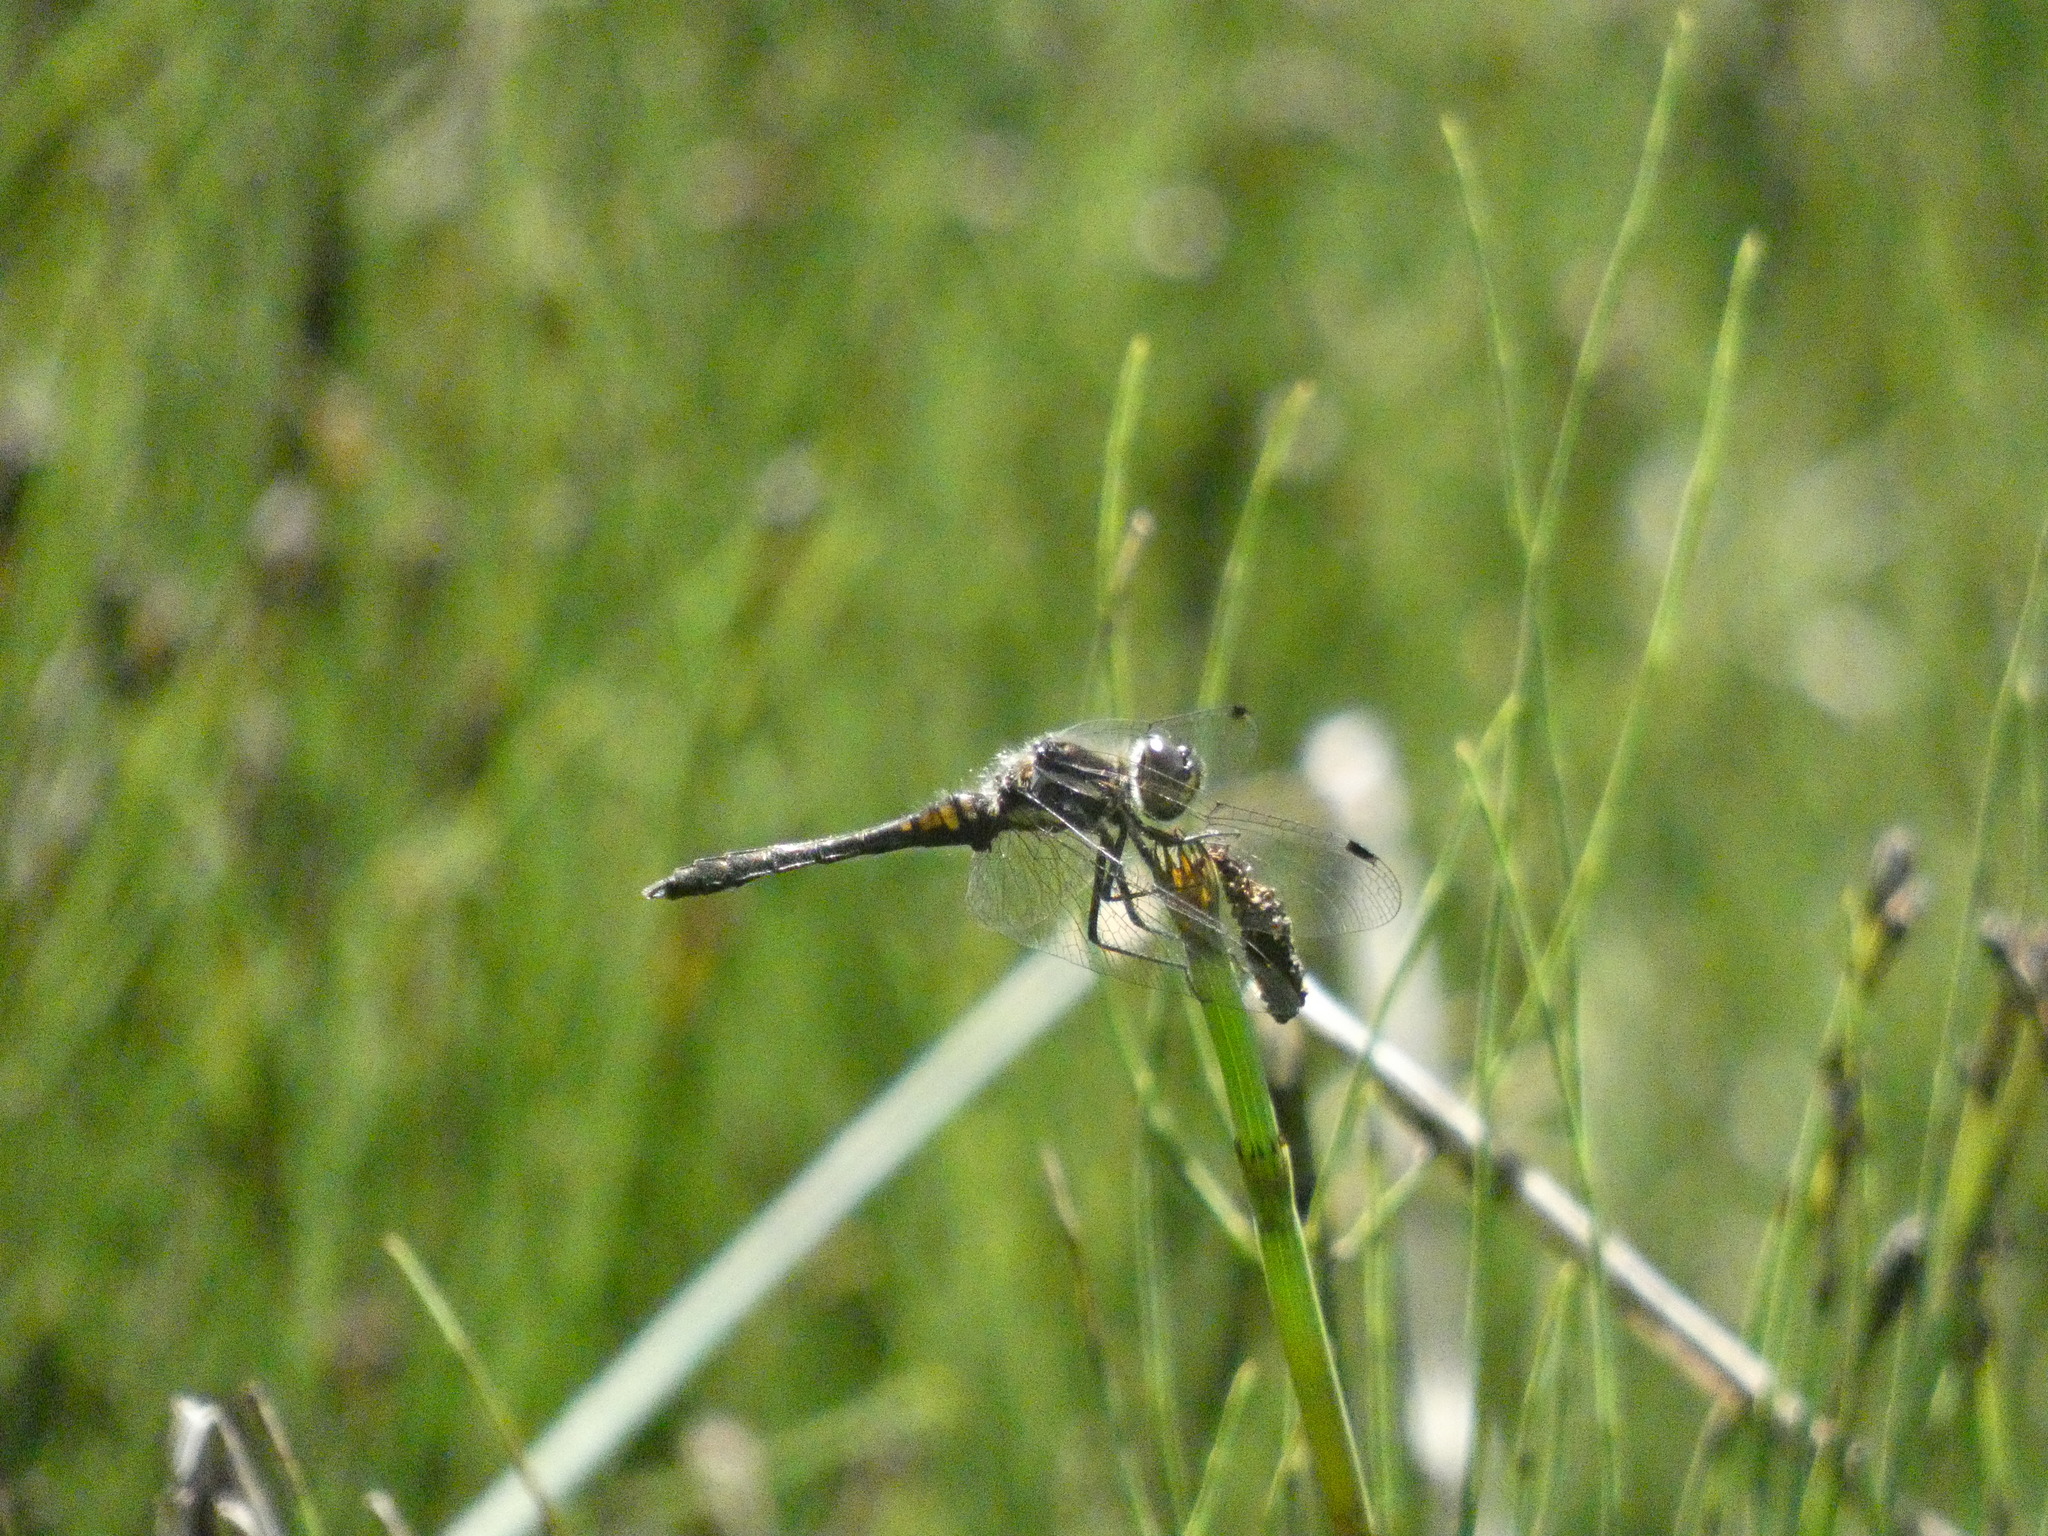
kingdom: Animalia
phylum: Arthropoda
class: Insecta
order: Odonata
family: Libellulidae
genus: Sympetrum
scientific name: Sympetrum danae
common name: Black darter
